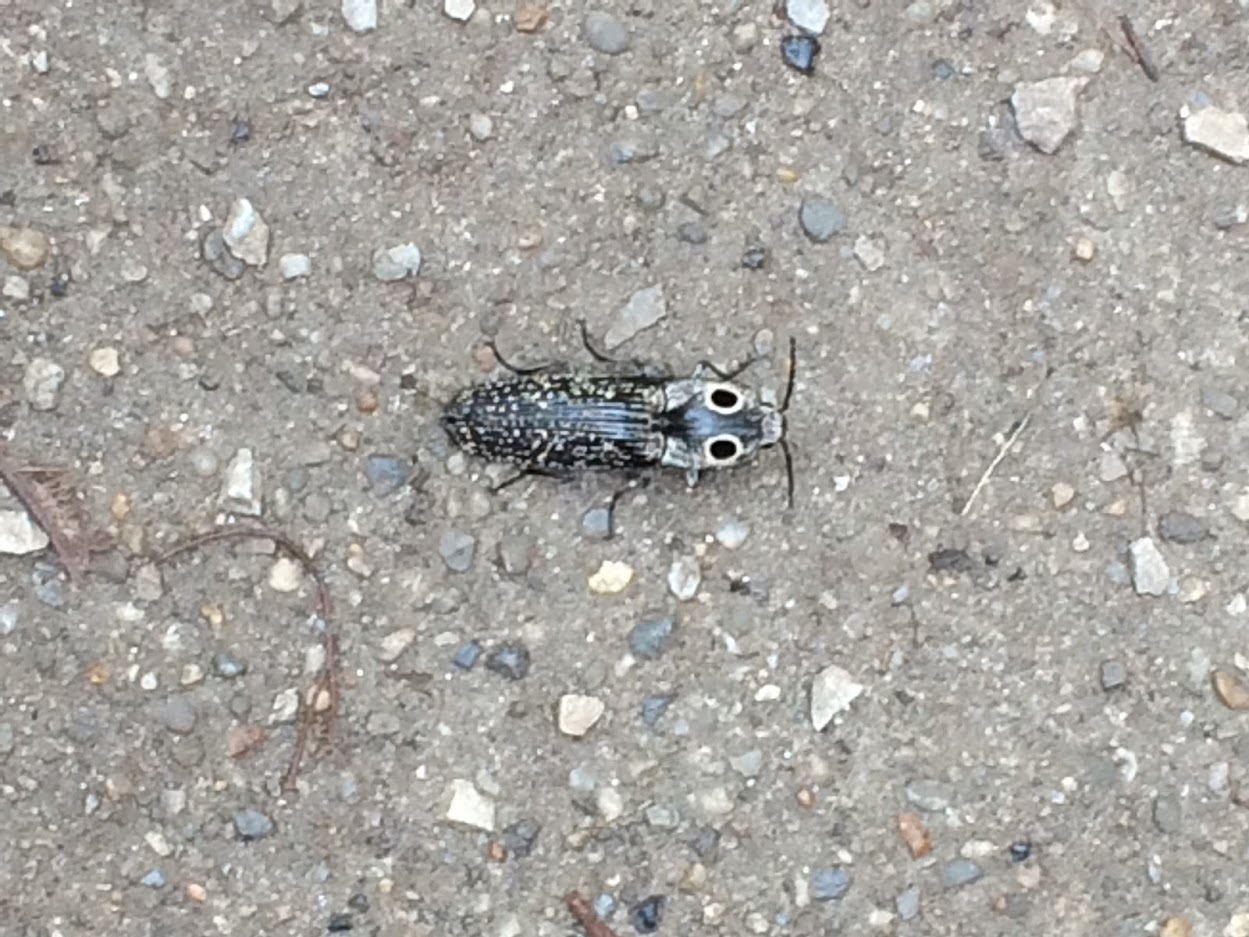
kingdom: Animalia
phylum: Arthropoda
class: Insecta
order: Coleoptera
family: Elateridae
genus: Alaus
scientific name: Alaus oculatus
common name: Eastern eyed click beetle
